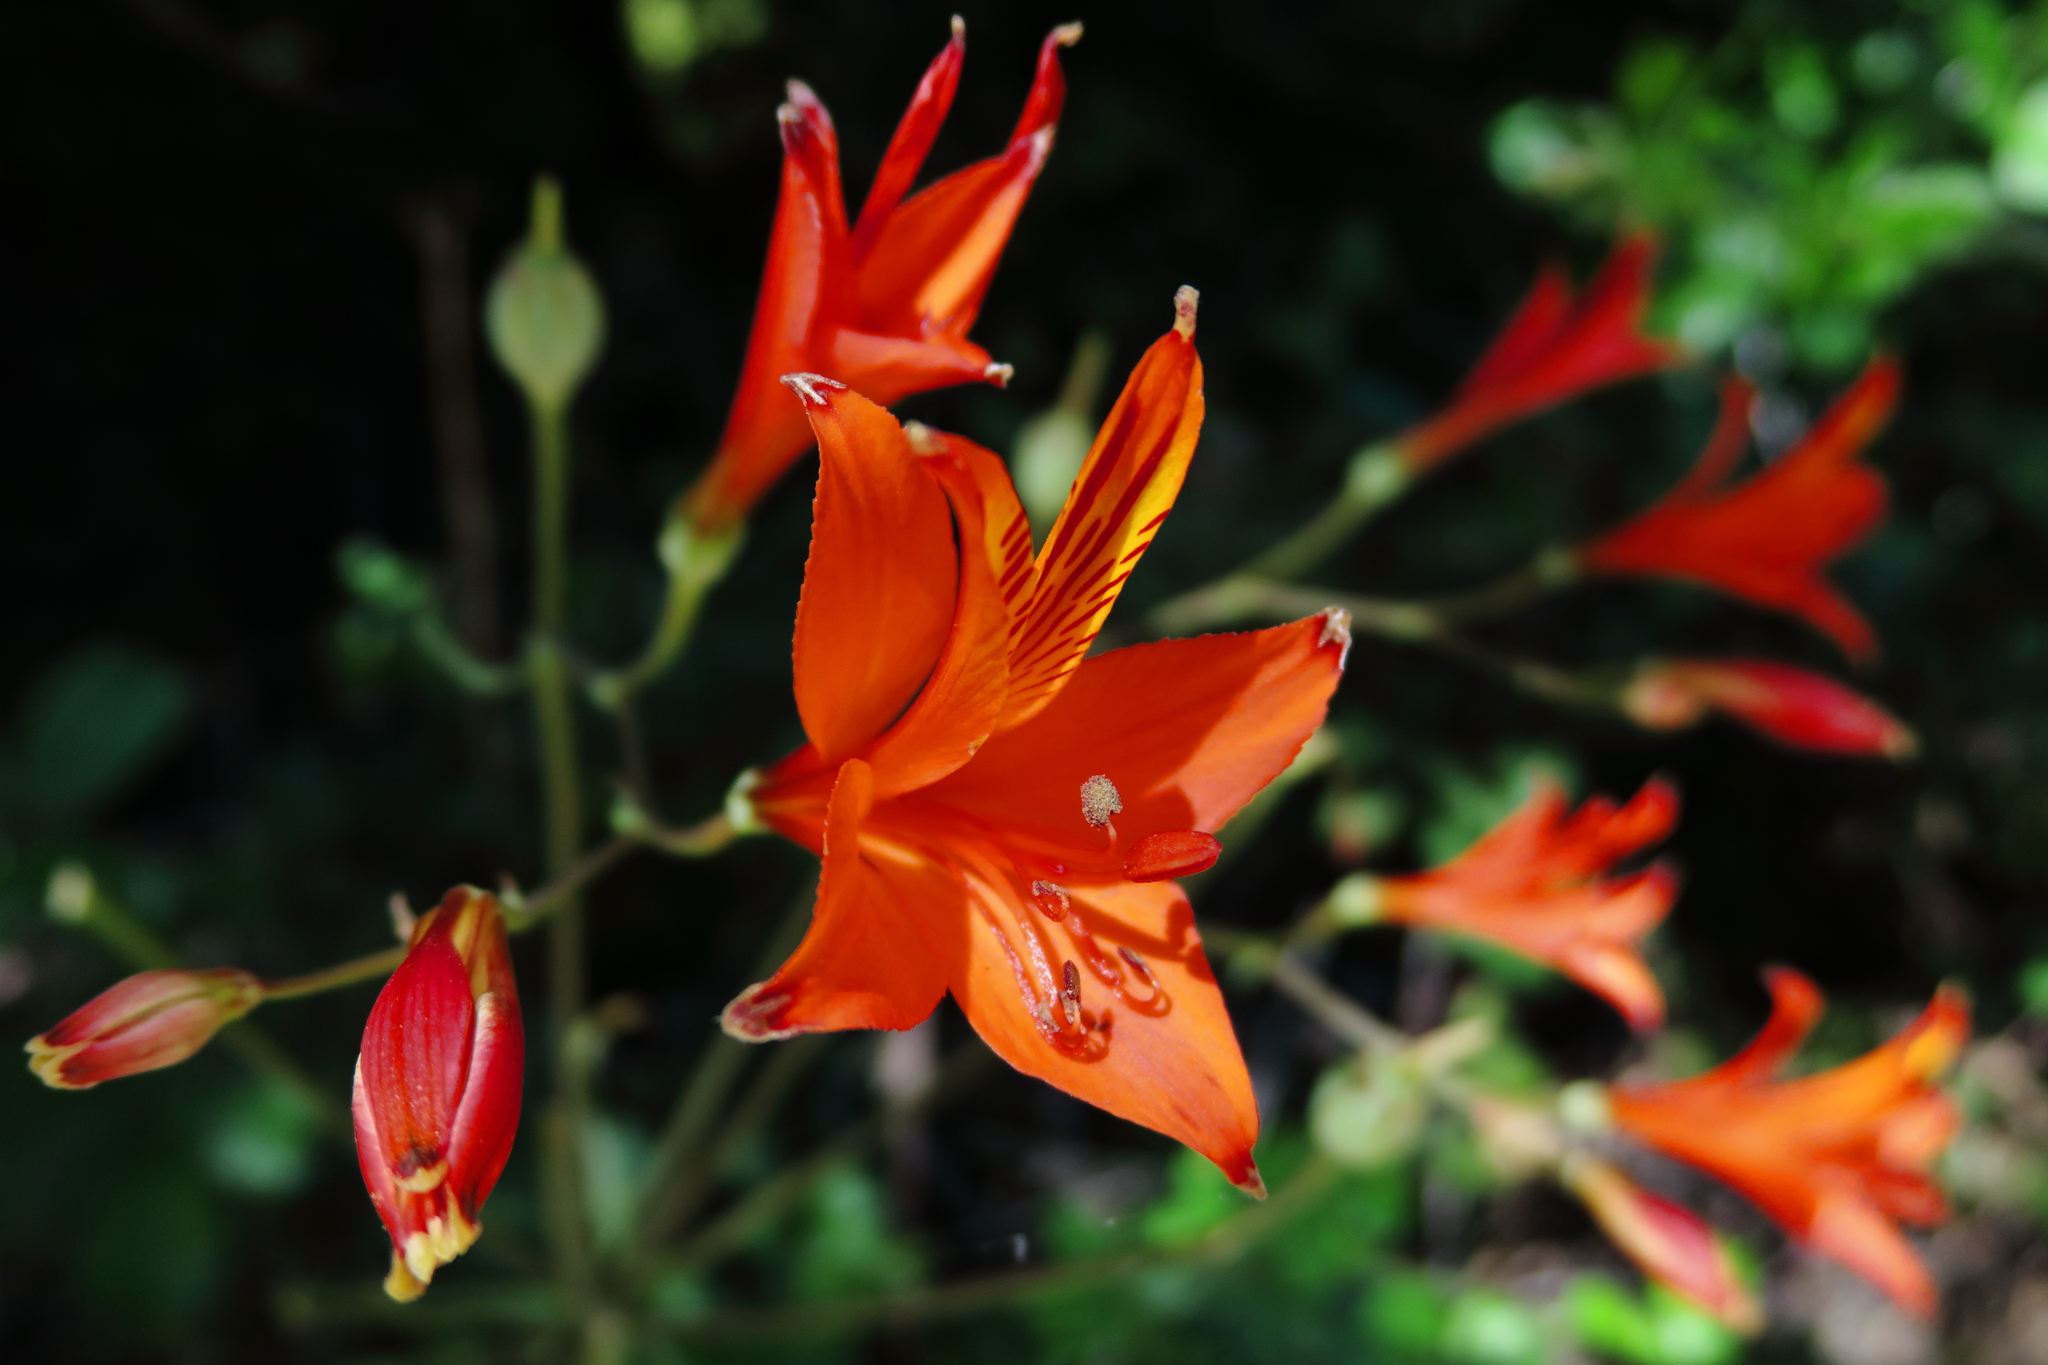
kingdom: Plantae
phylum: Tracheophyta
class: Liliopsida
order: Liliales
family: Alstroemeriaceae
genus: Alstroemeria
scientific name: Alstroemeria ligtu
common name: St. martin's-flower
